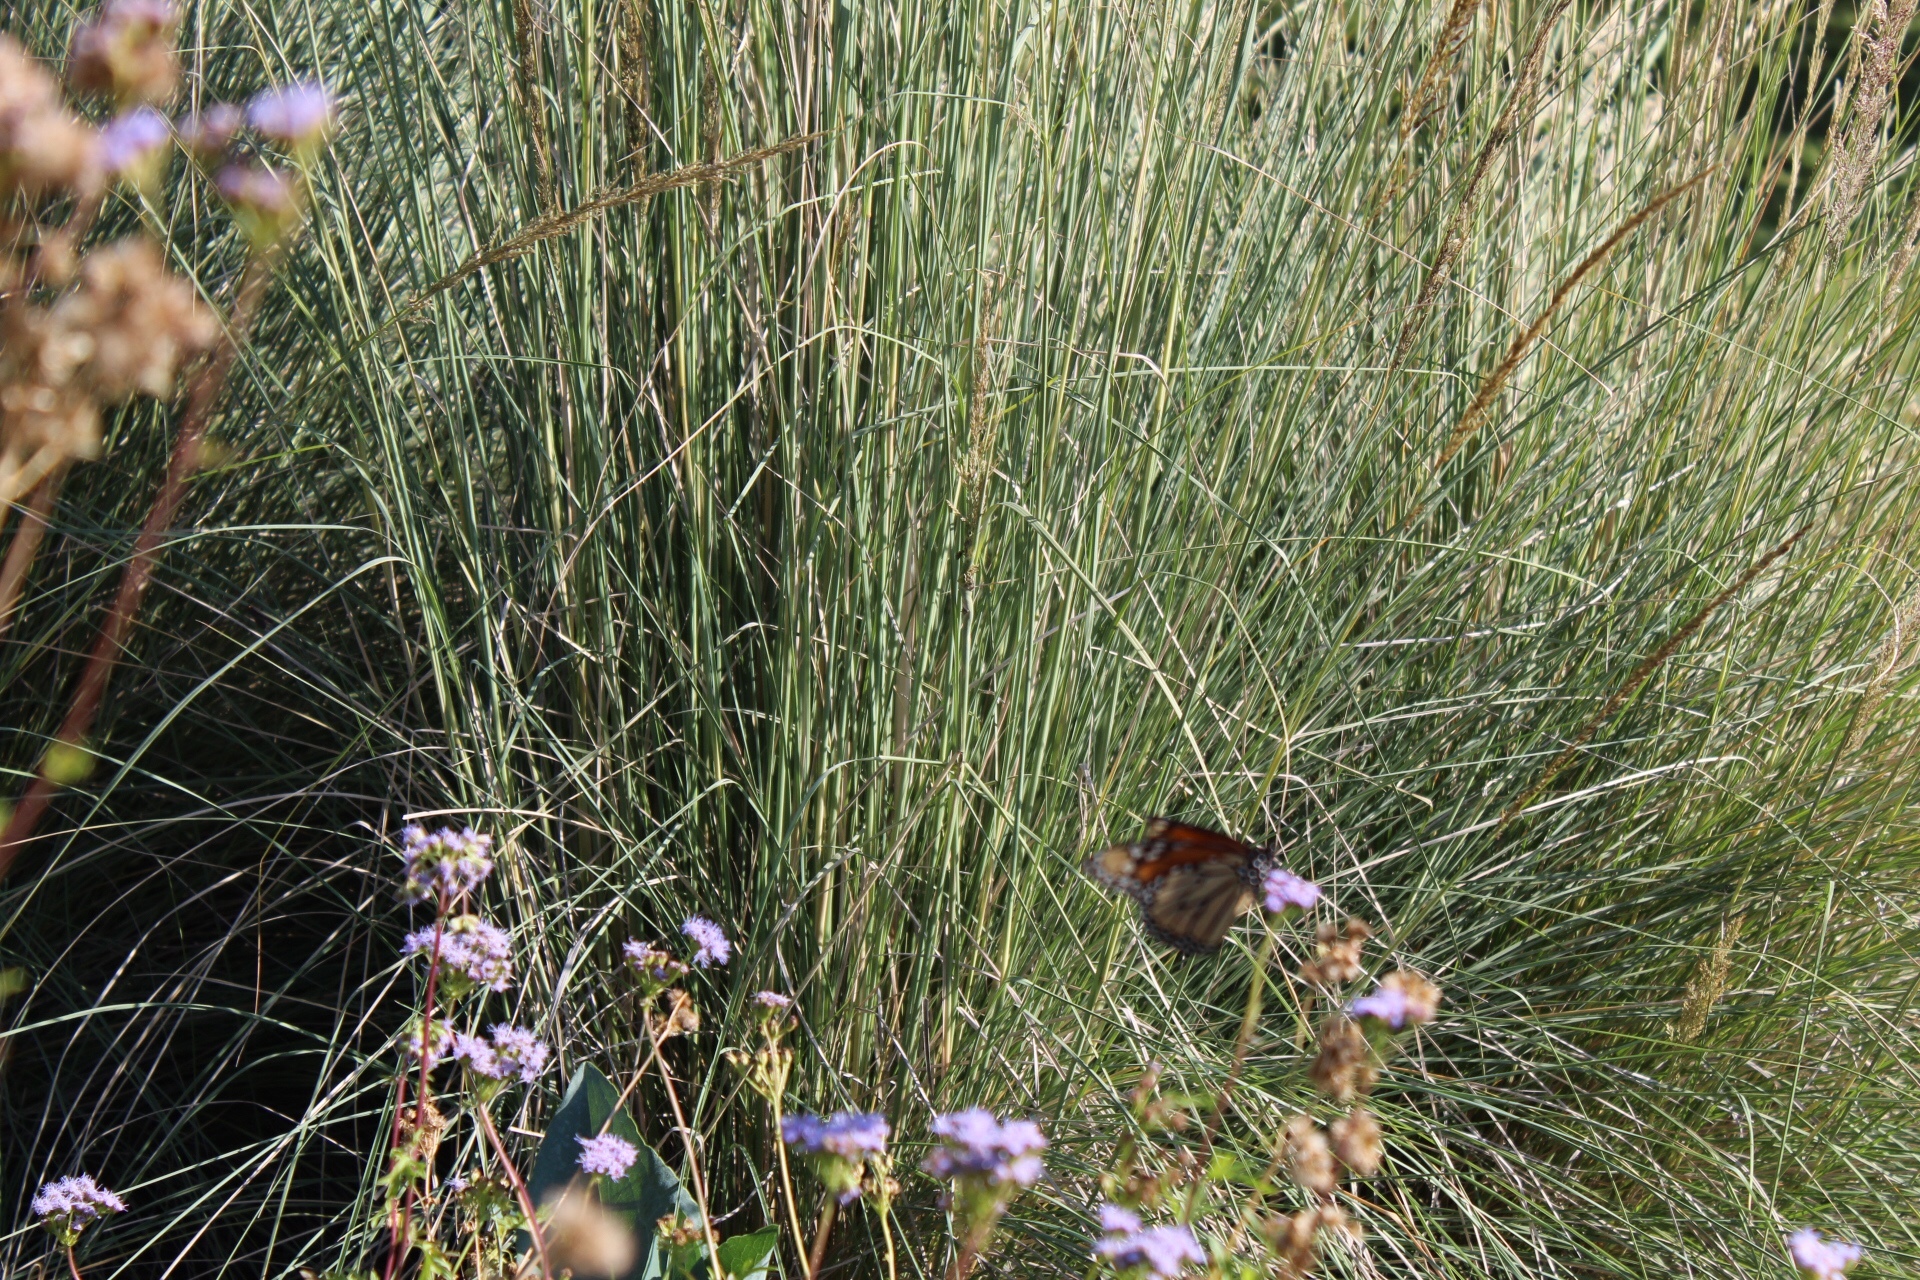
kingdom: Animalia
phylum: Arthropoda
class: Insecta
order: Lepidoptera
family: Nymphalidae
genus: Danaus
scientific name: Danaus plexippus
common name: Monarch
